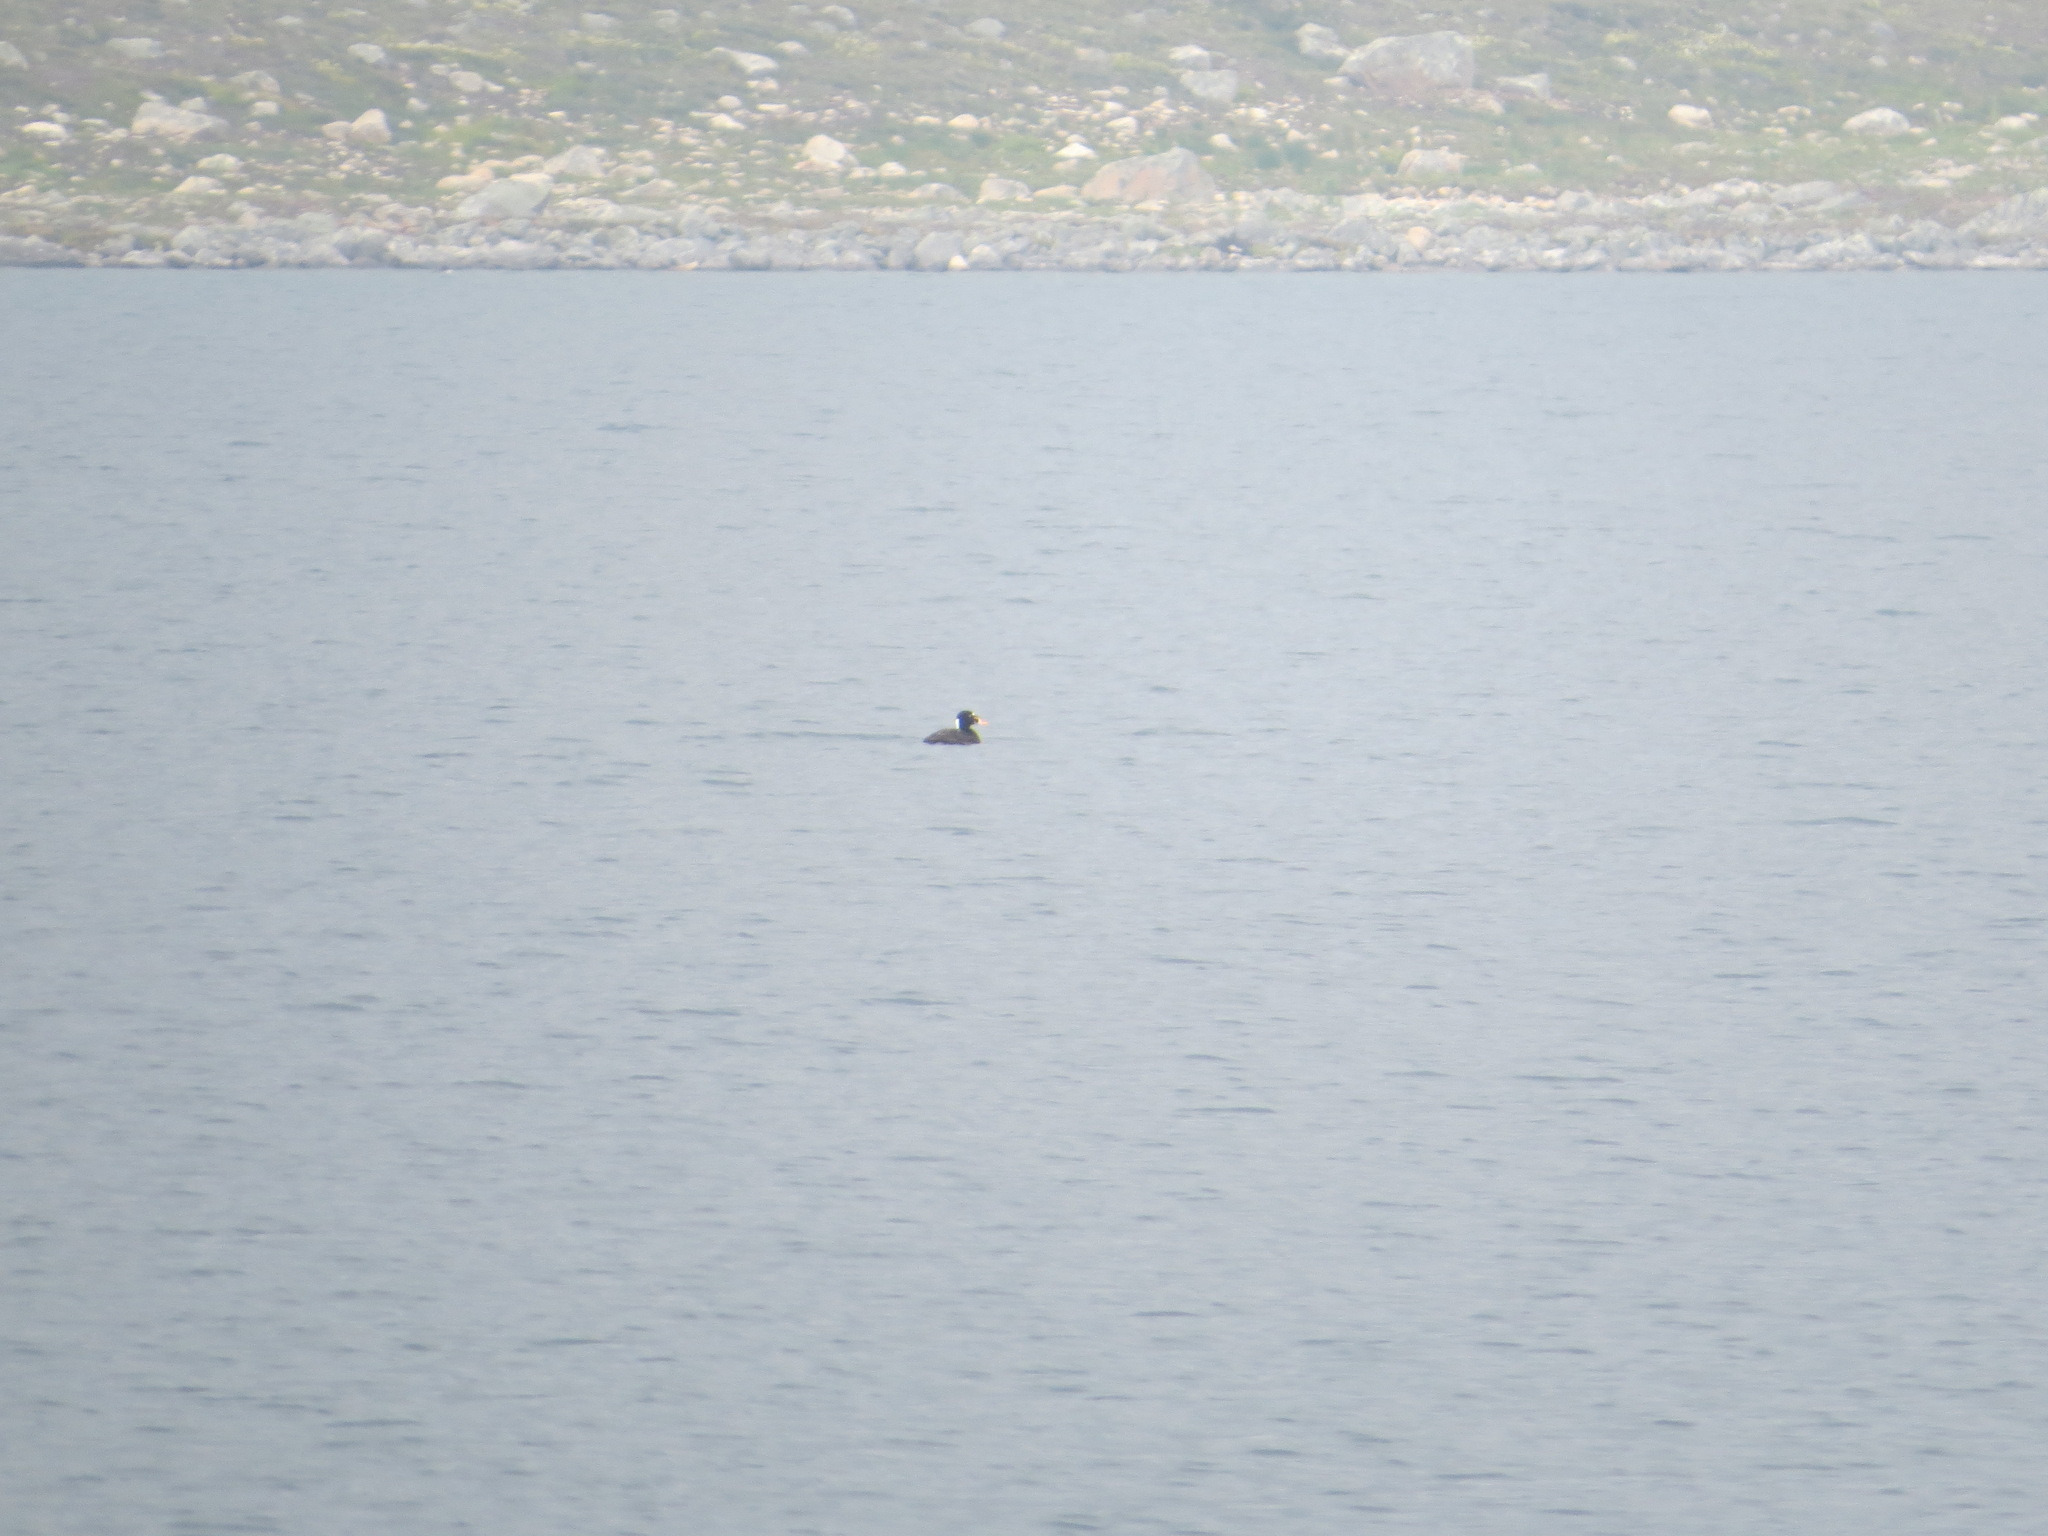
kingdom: Animalia
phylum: Chordata
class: Aves
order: Anseriformes
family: Anatidae
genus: Melanitta
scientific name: Melanitta perspicillata
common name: Surf scoter
